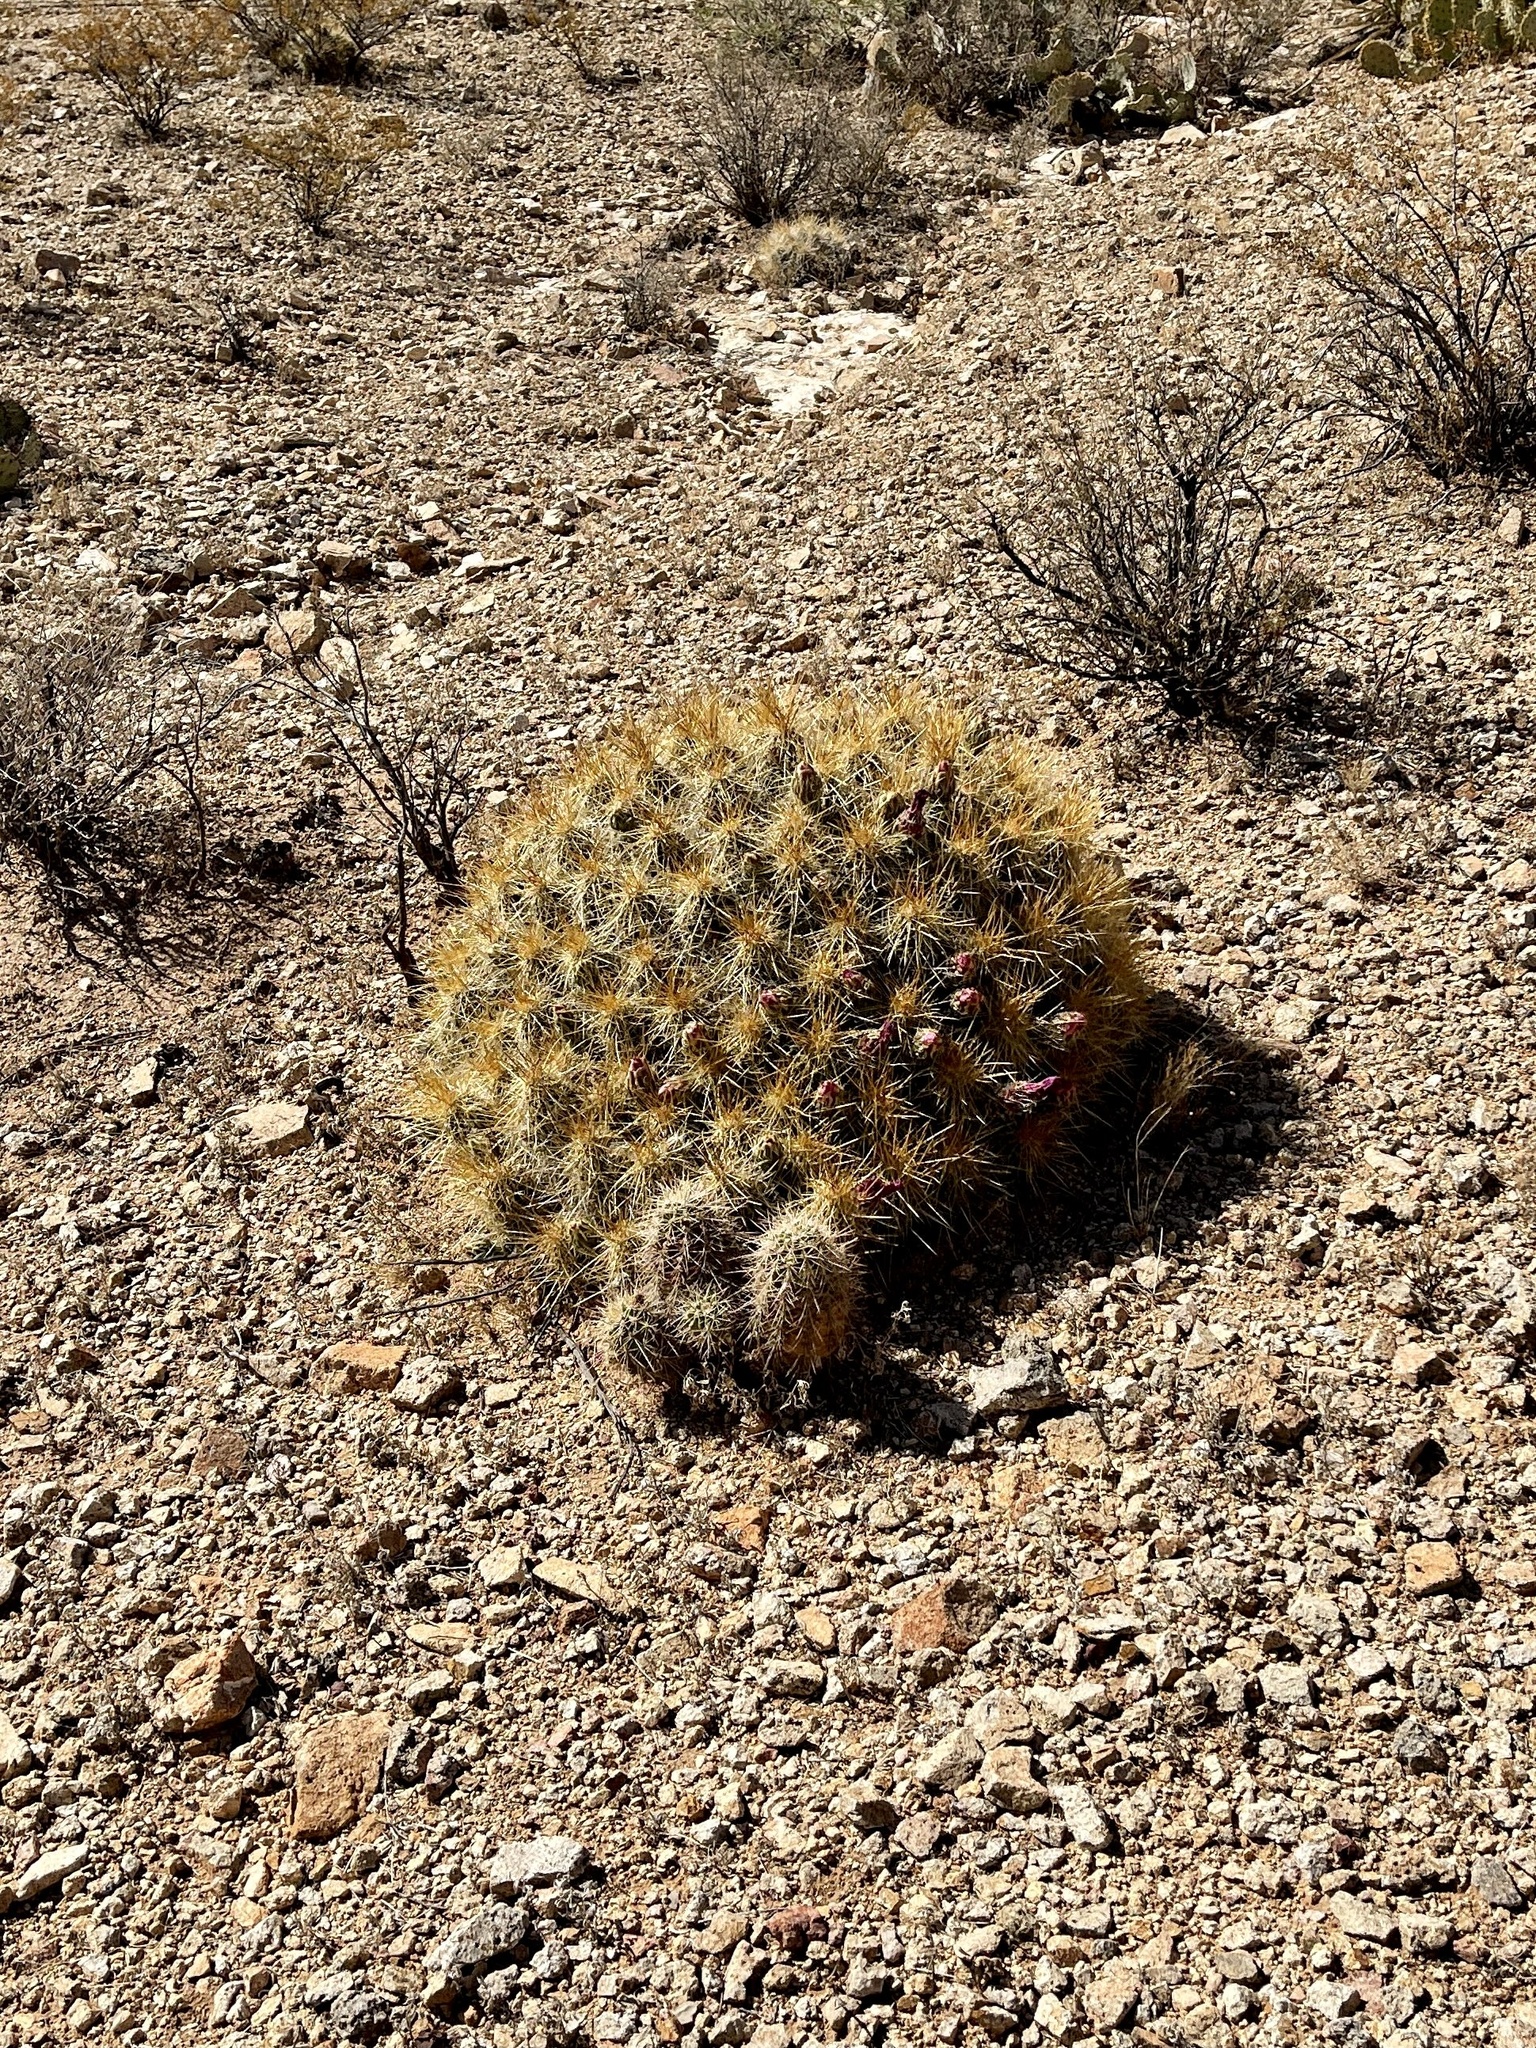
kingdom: Plantae
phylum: Tracheophyta
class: Magnoliopsida
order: Caryophyllales
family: Cactaceae
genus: Echinocereus
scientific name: Echinocereus coccineus
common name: Scarlet hedgehog cactus
